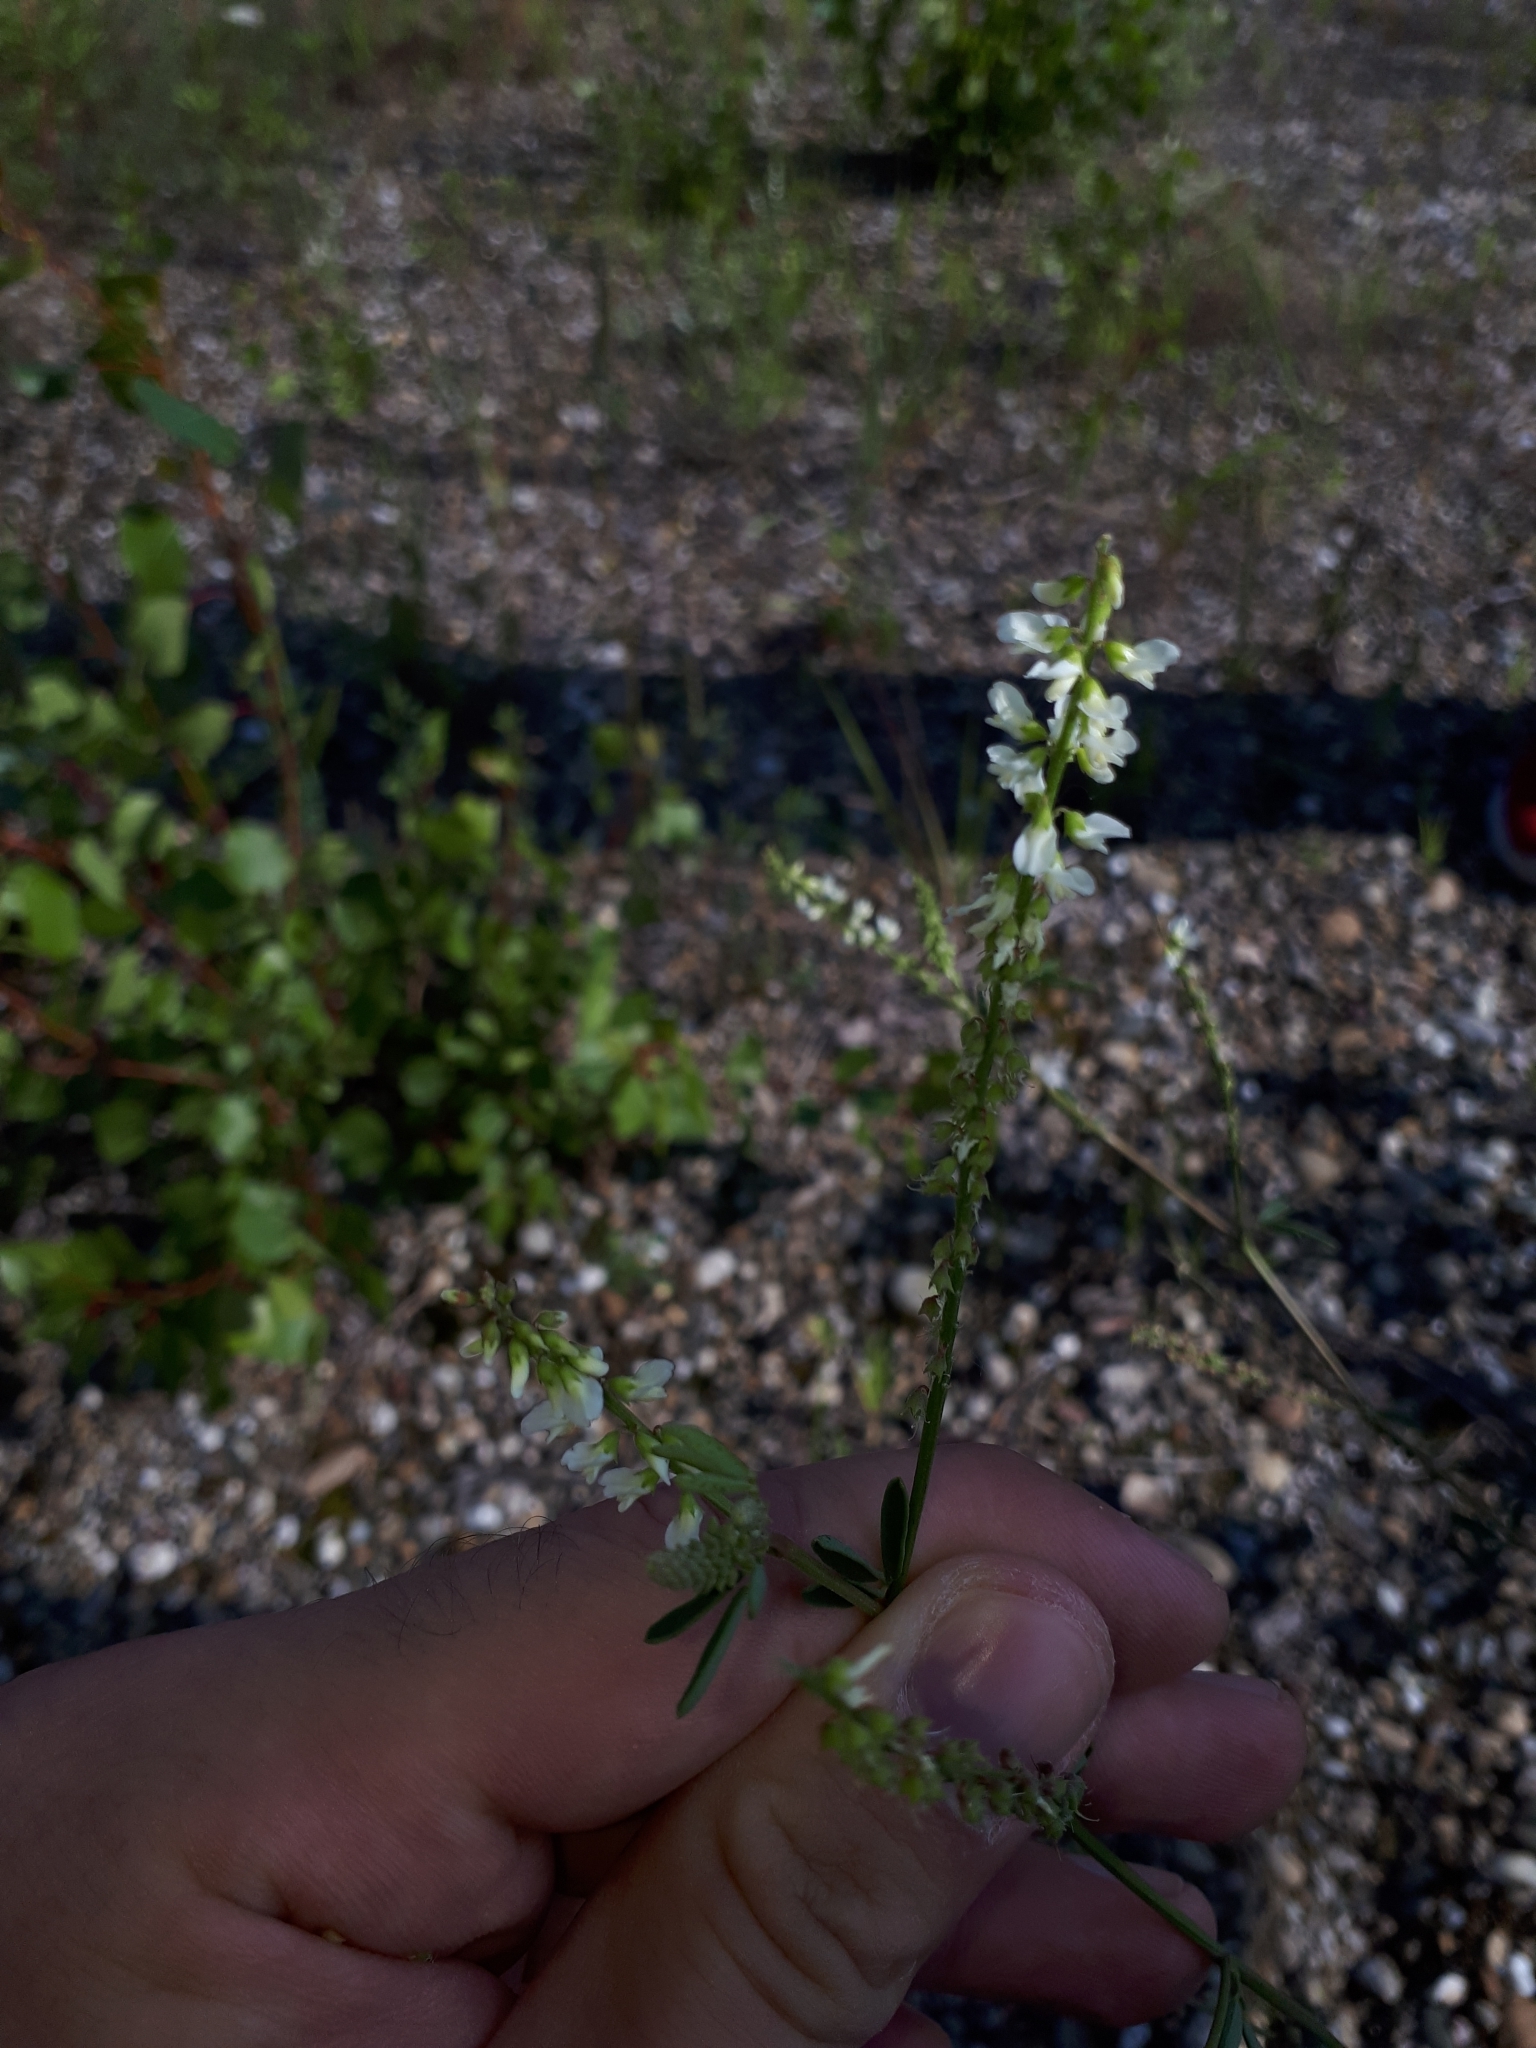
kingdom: Plantae
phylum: Tracheophyta
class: Magnoliopsida
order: Fabales
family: Fabaceae
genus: Melilotus
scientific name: Melilotus albus
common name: White melilot
